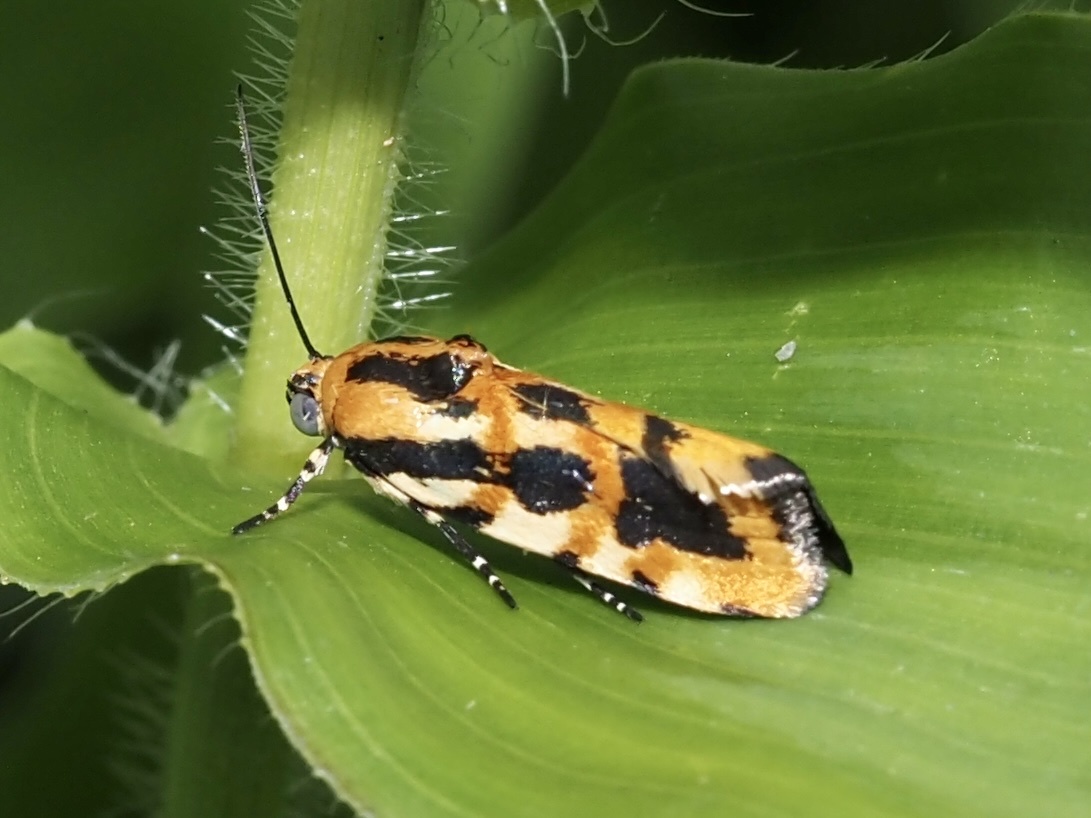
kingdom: Animalia
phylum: Arthropoda
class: Insecta
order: Lepidoptera
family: Noctuidae
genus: Acontia
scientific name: Acontia leo
